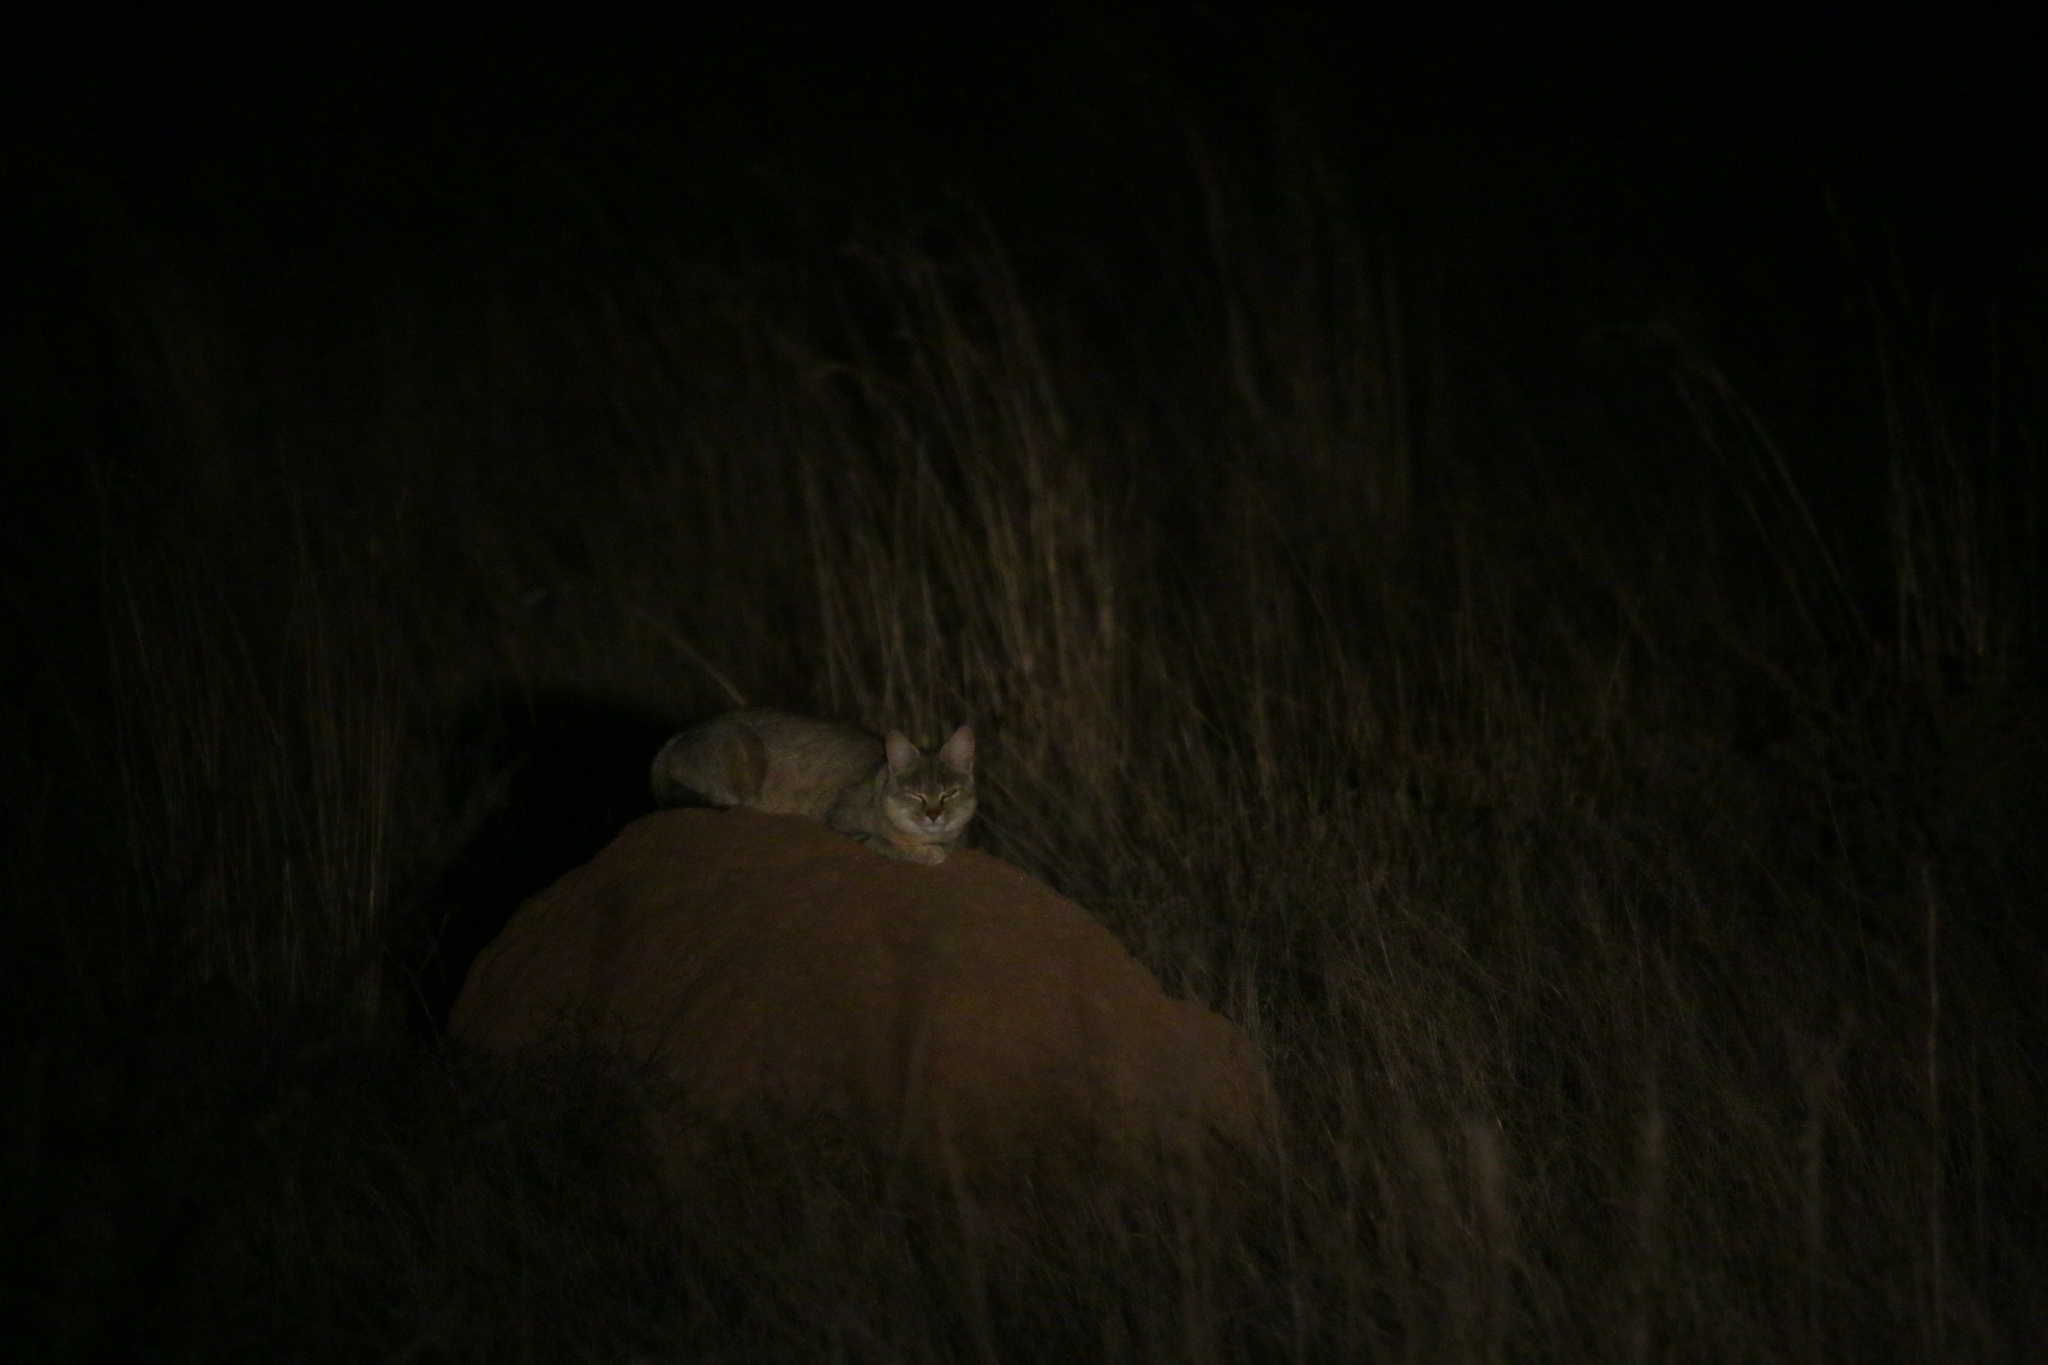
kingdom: Animalia
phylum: Chordata
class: Mammalia
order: Carnivora
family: Felidae
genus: Felis
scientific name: Felis silvestris
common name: Wildcat
